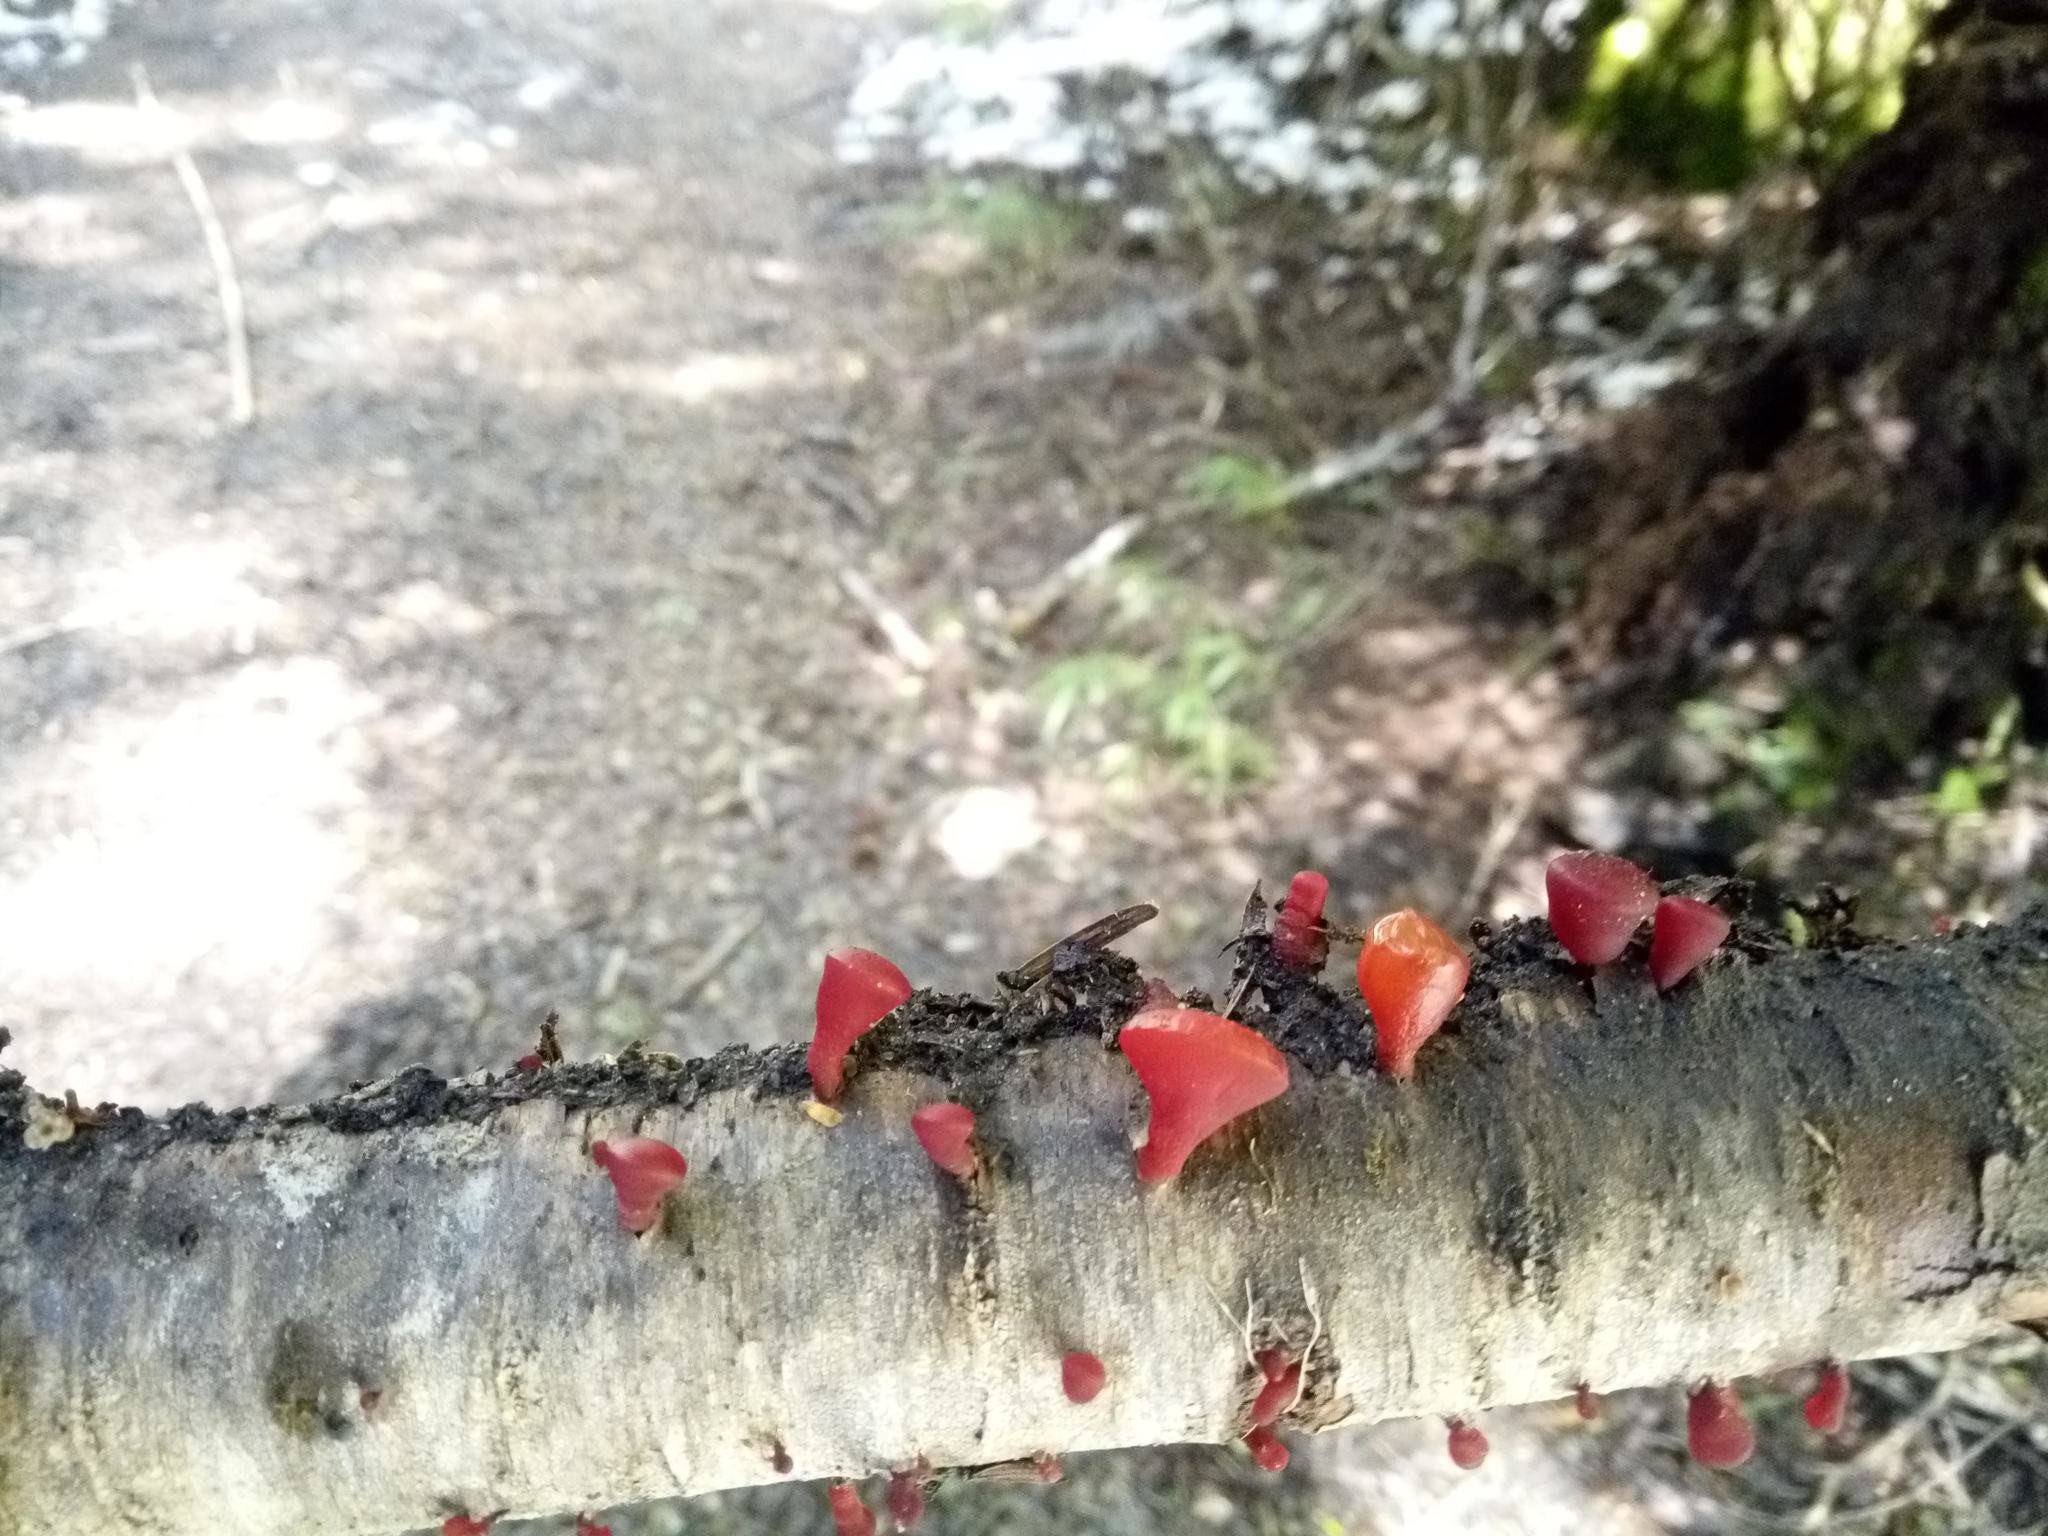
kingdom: Fungi
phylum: Basidiomycota
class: Dacrymycetes
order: Dacrymycetales
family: Dacrymycetaceae
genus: Guepiniopsis
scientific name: Guepiniopsis alpina
